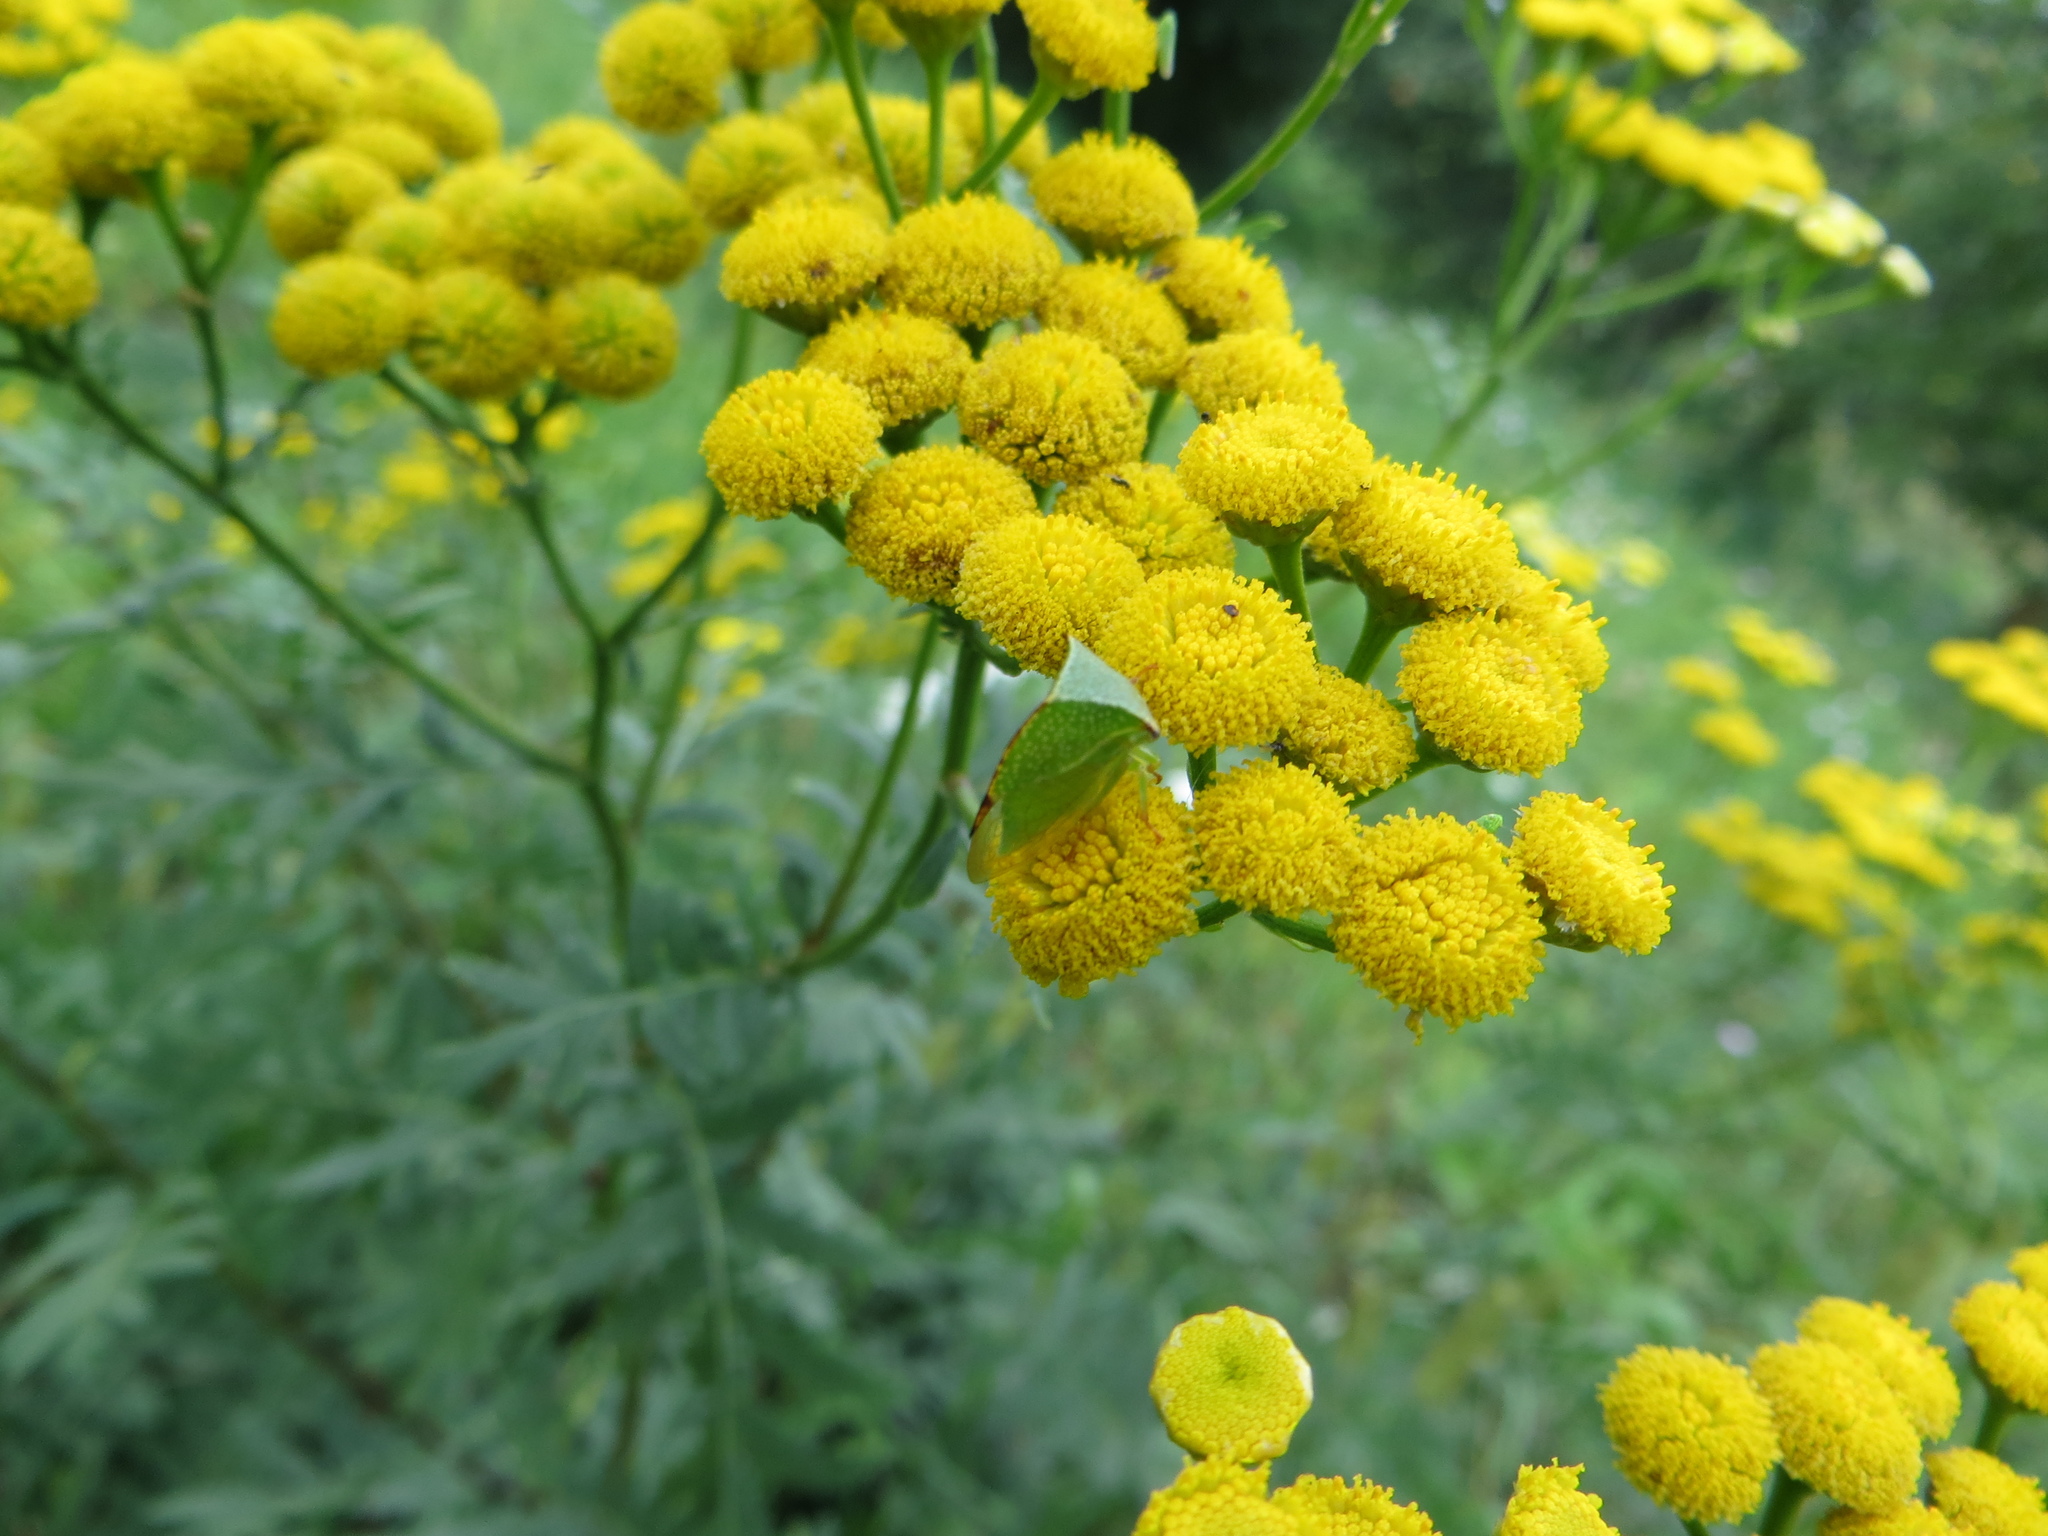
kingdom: Animalia
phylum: Arthropoda
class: Insecta
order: Hemiptera
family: Membracidae
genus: Stictocephala
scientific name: Stictocephala bisonia
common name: American buffalo treehopper
